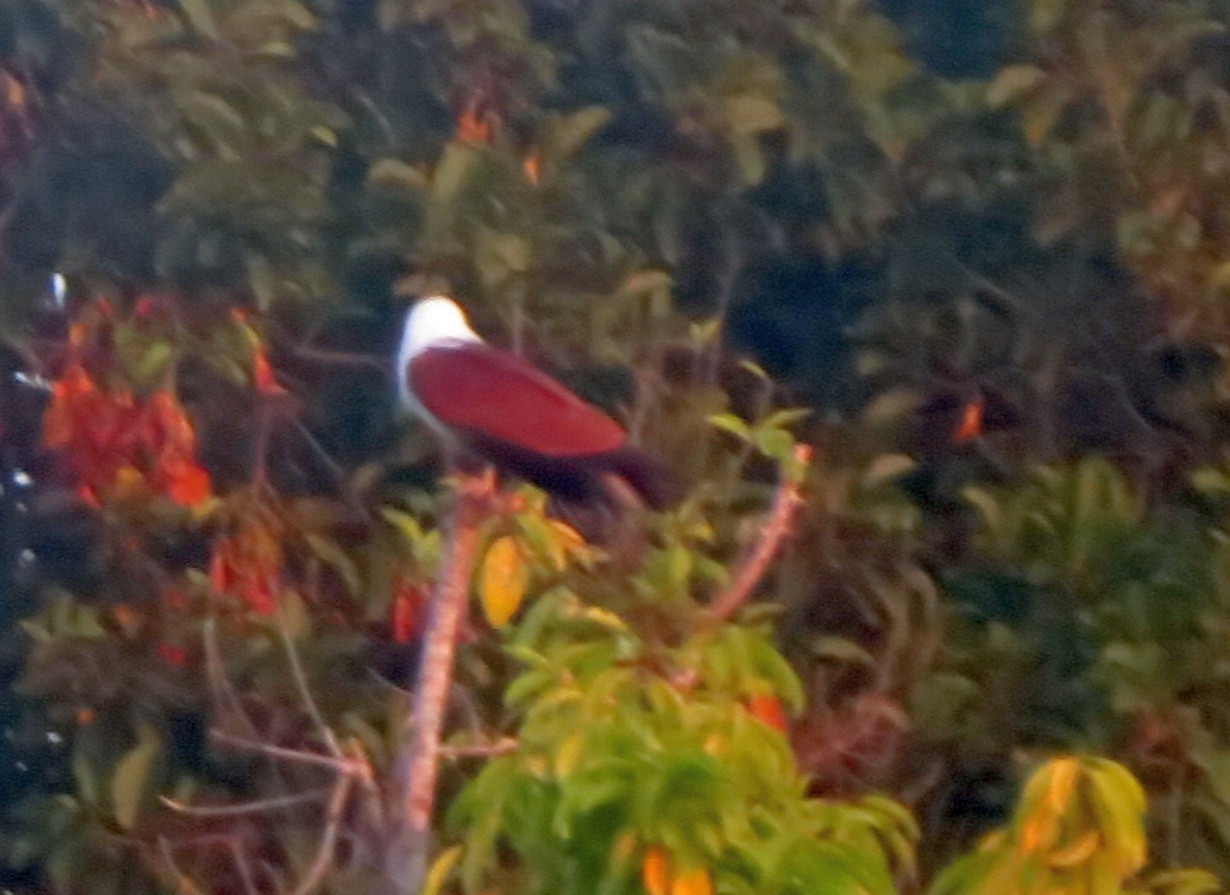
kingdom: Animalia
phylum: Chordata
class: Aves
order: Accipitriformes
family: Accipitridae
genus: Haliastur
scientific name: Haliastur indus
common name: Brahminy kite
